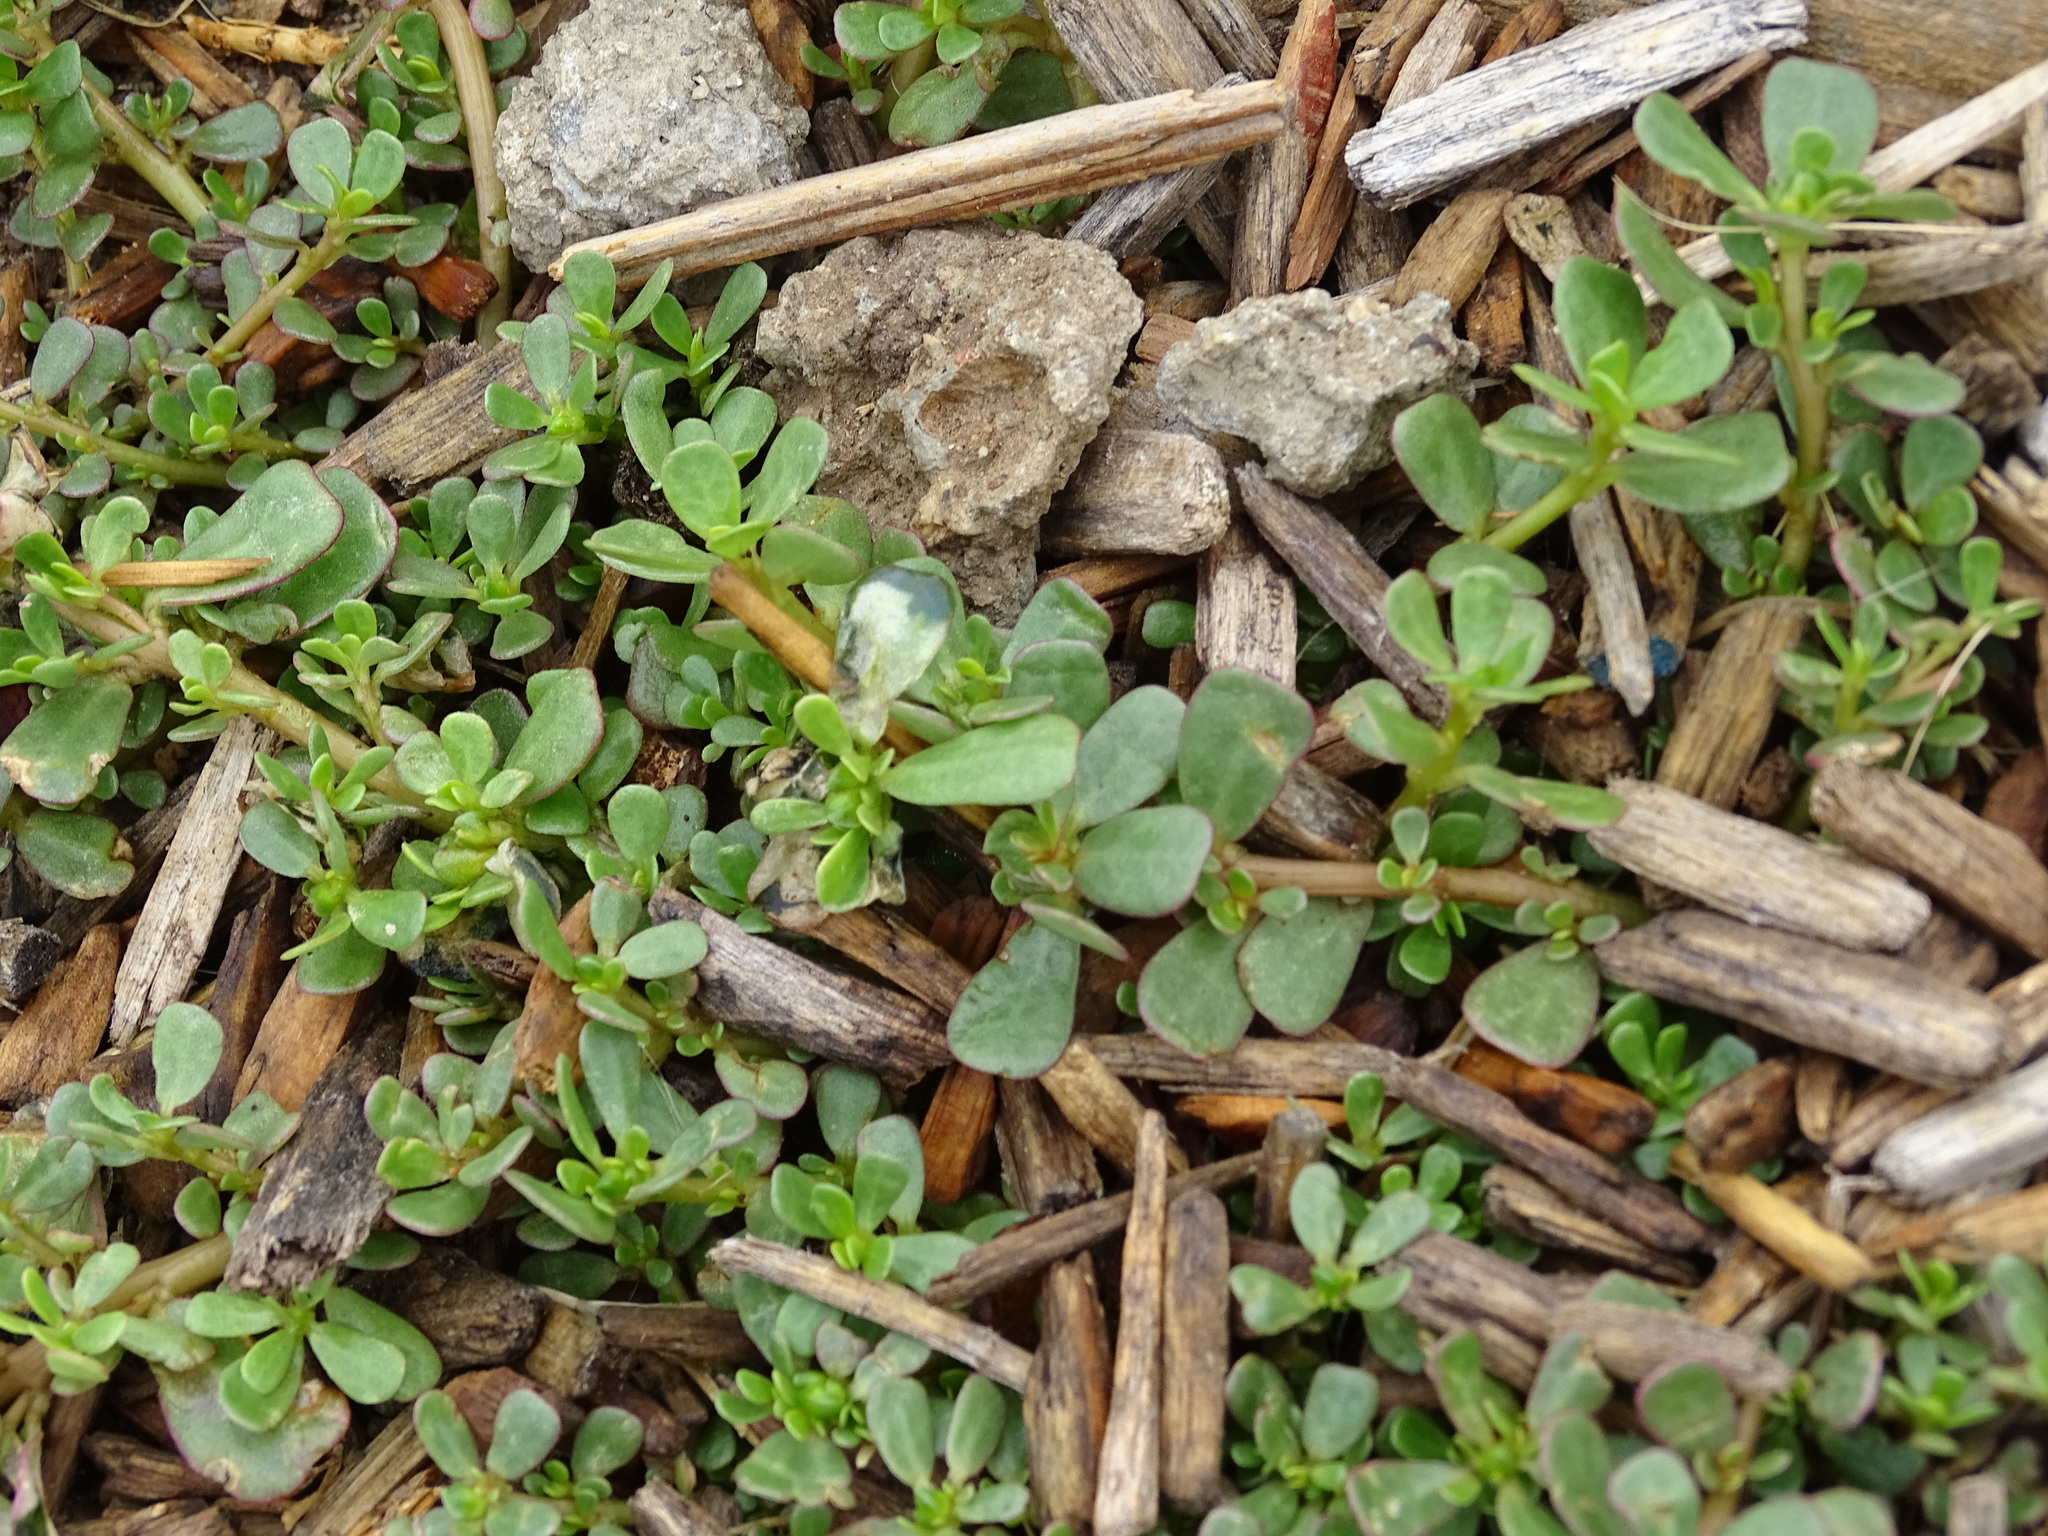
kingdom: Plantae
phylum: Tracheophyta
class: Magnoliopsida
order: Caryophyllales
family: Portulacaceae
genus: Portulaca
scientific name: Portulaca oleracea
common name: Common purslane
